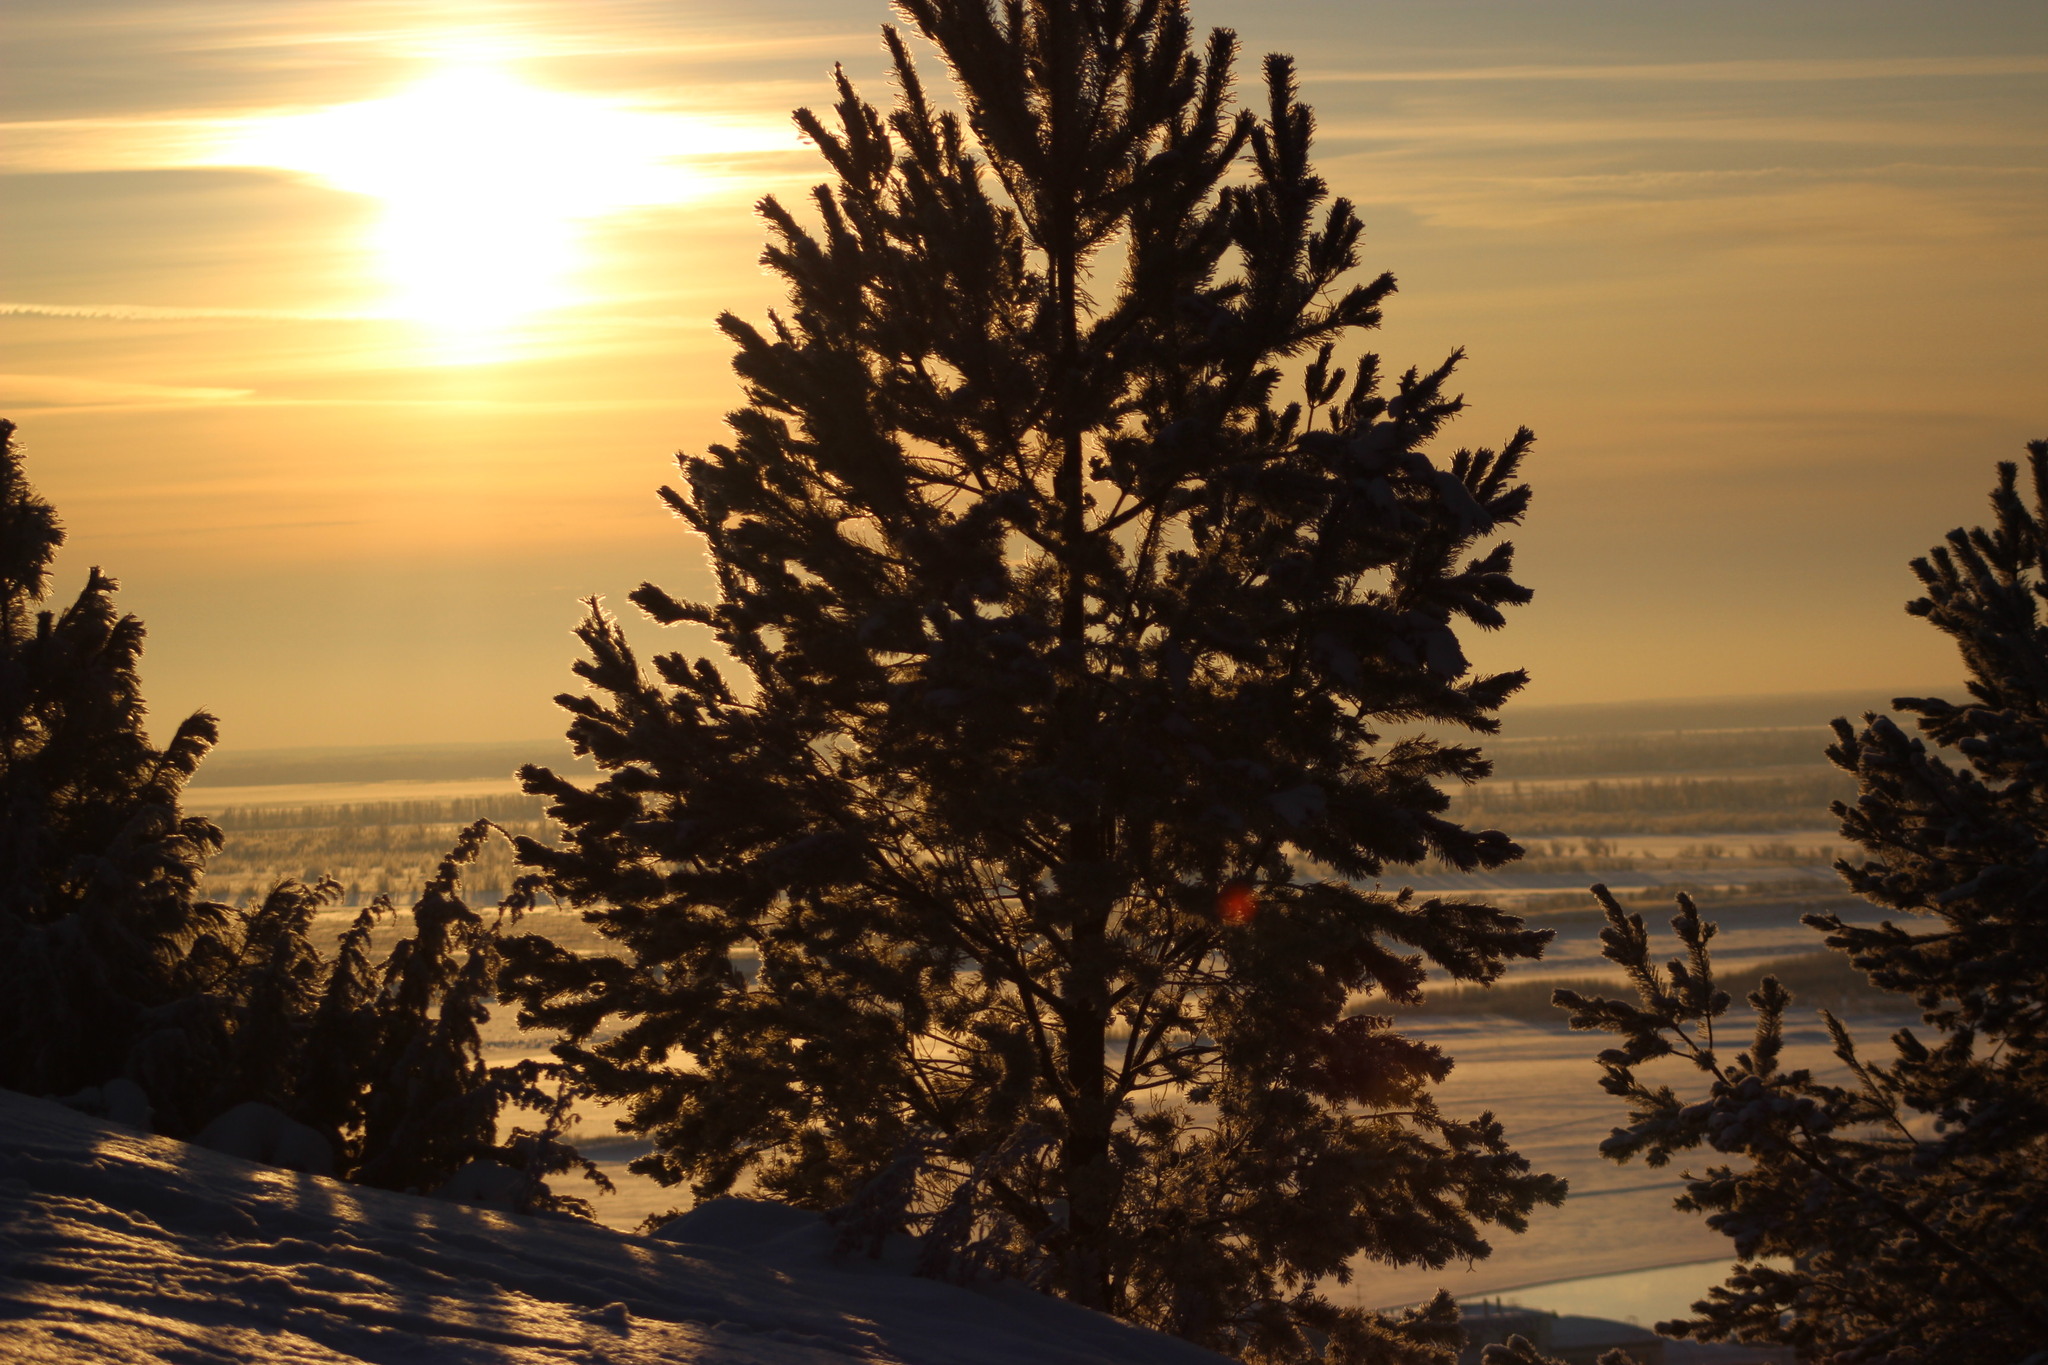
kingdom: Plantae
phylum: Tracheophyta
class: Pinopsida
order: Pinales
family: Pinaceae
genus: Pinus
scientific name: Pinus sylvestris
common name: Scots pine
